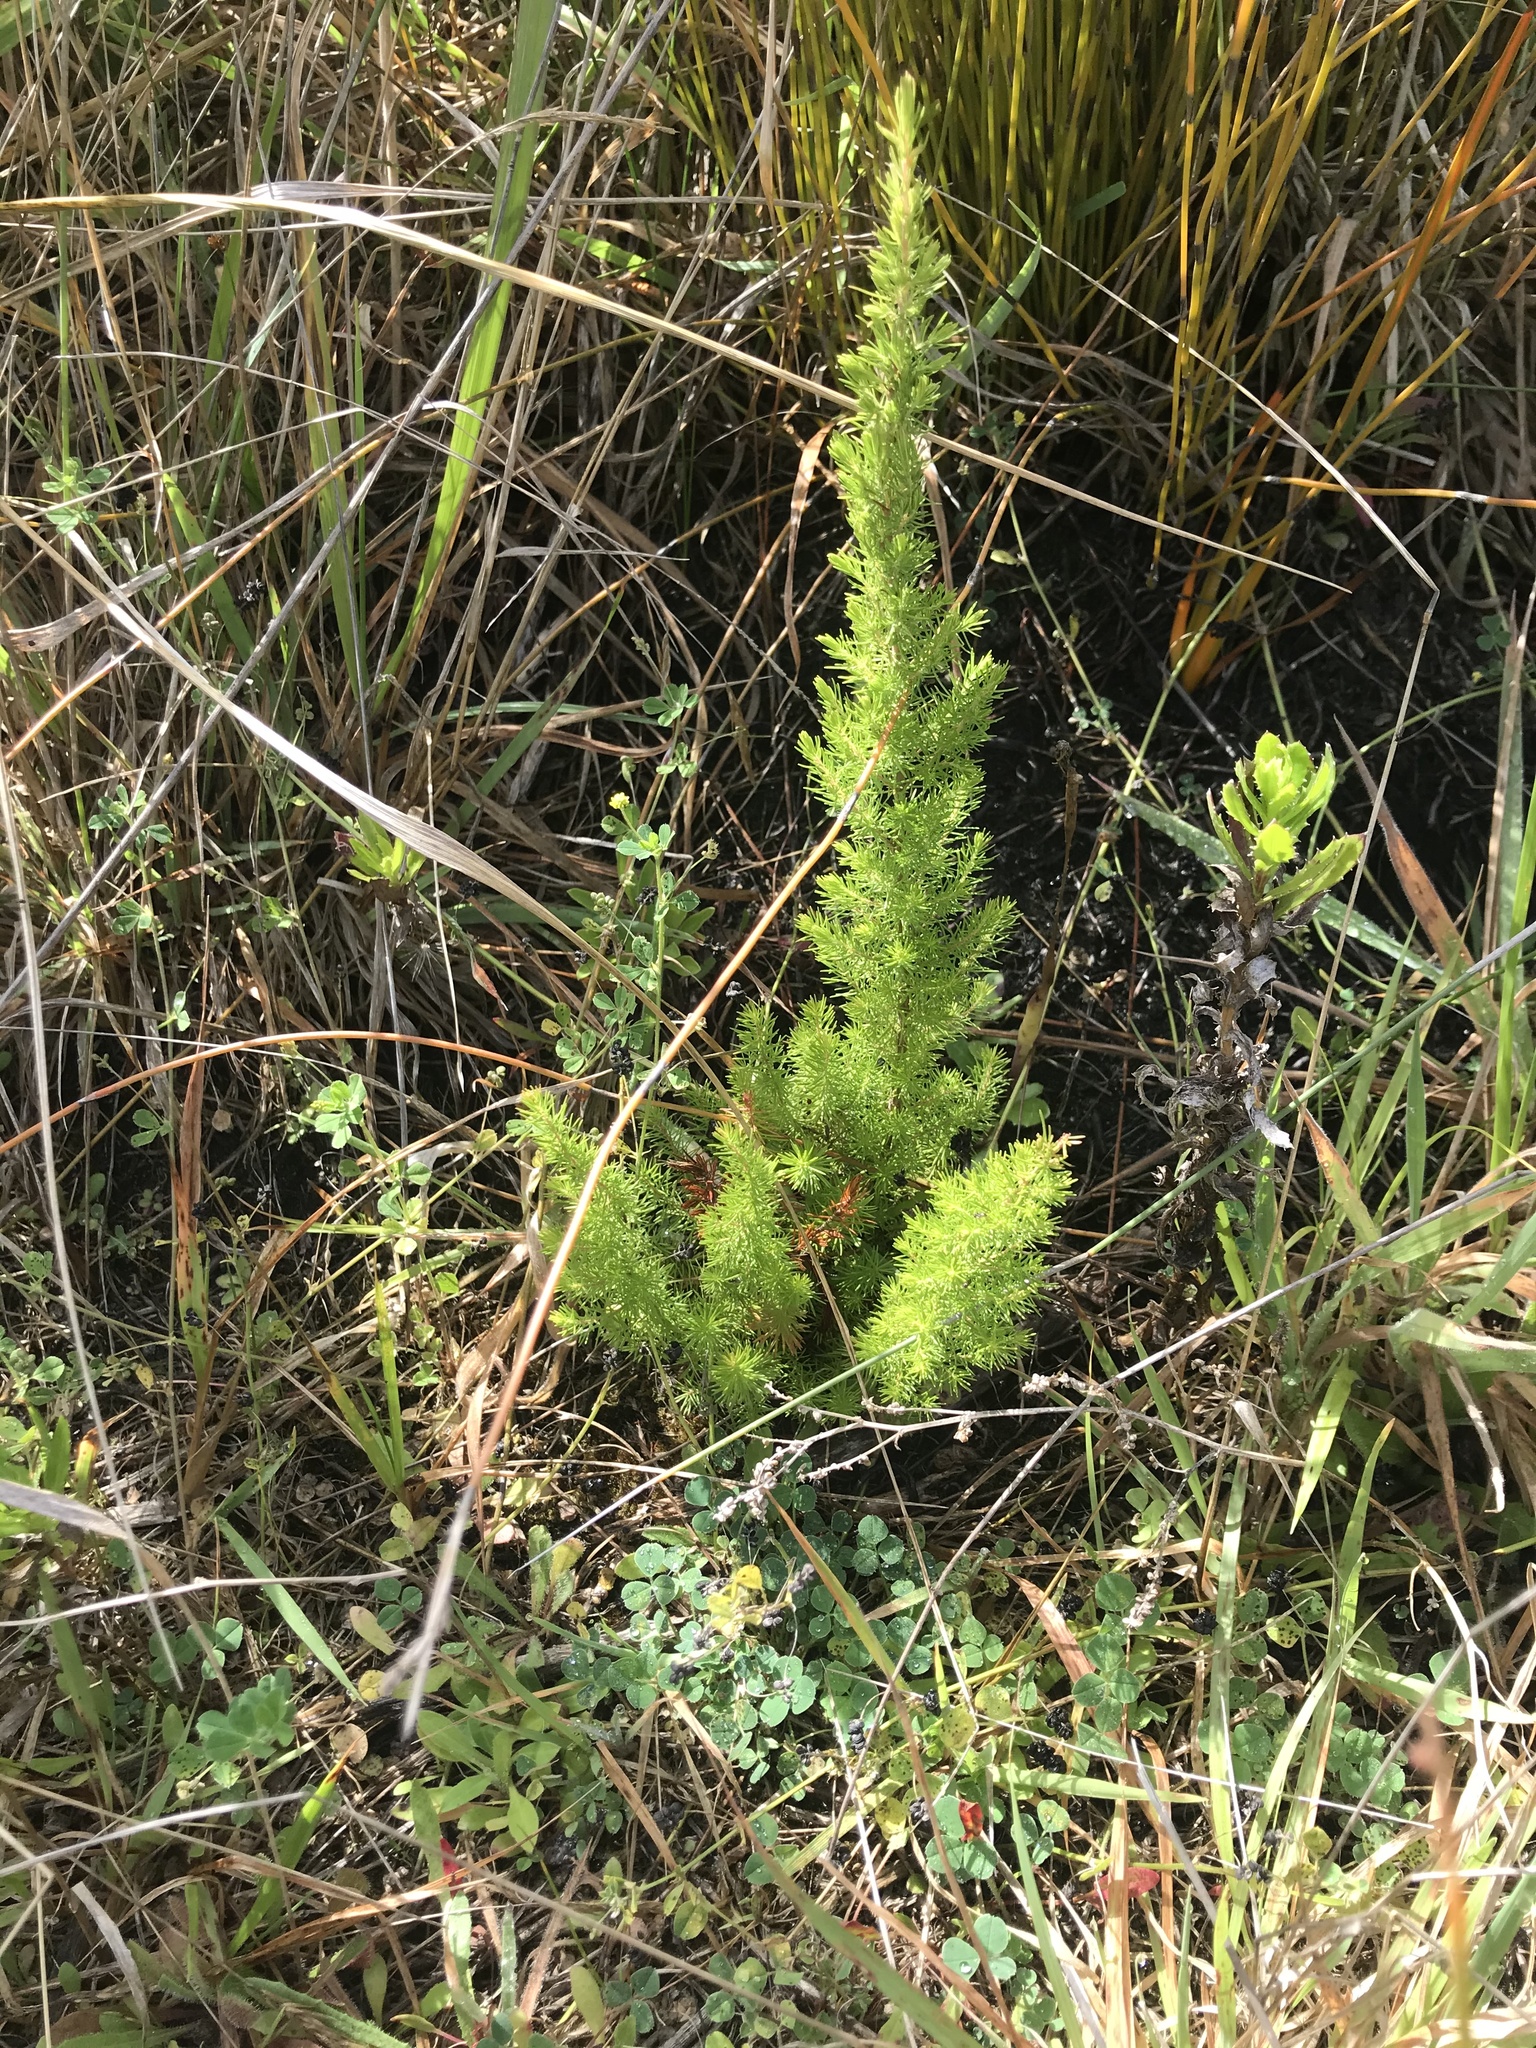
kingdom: Plantae
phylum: Tracheophyta
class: Magnoliopsida
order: Ericales
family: Ericaceae
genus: Erica
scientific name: Erica lusitanica
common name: Spanish heath
